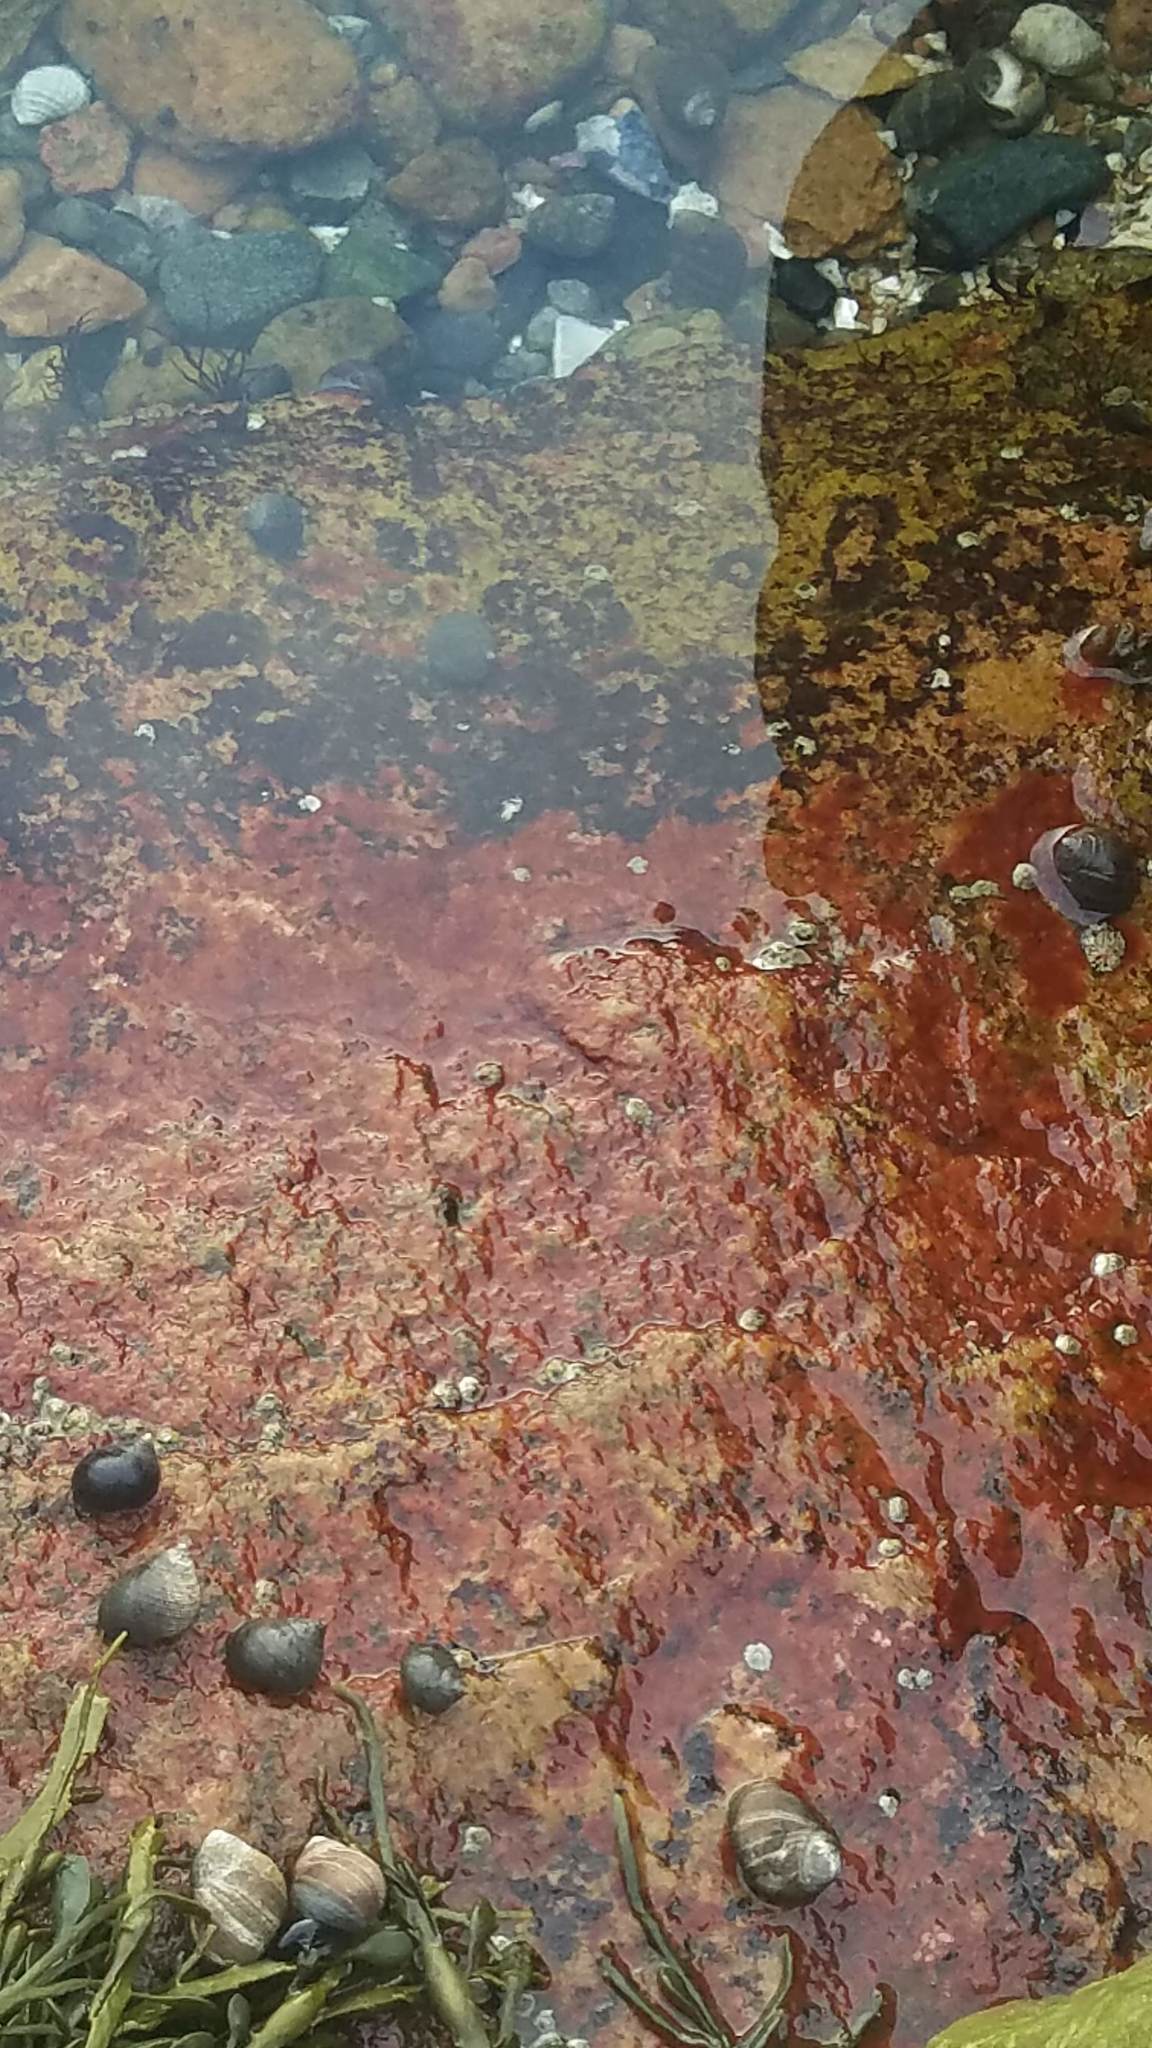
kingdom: Animalia
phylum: Mollusca
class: Gastropoda
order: Littorinimorpha
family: Littorinidae
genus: Littorina
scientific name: Littorina littorea
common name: Common periwinkle
